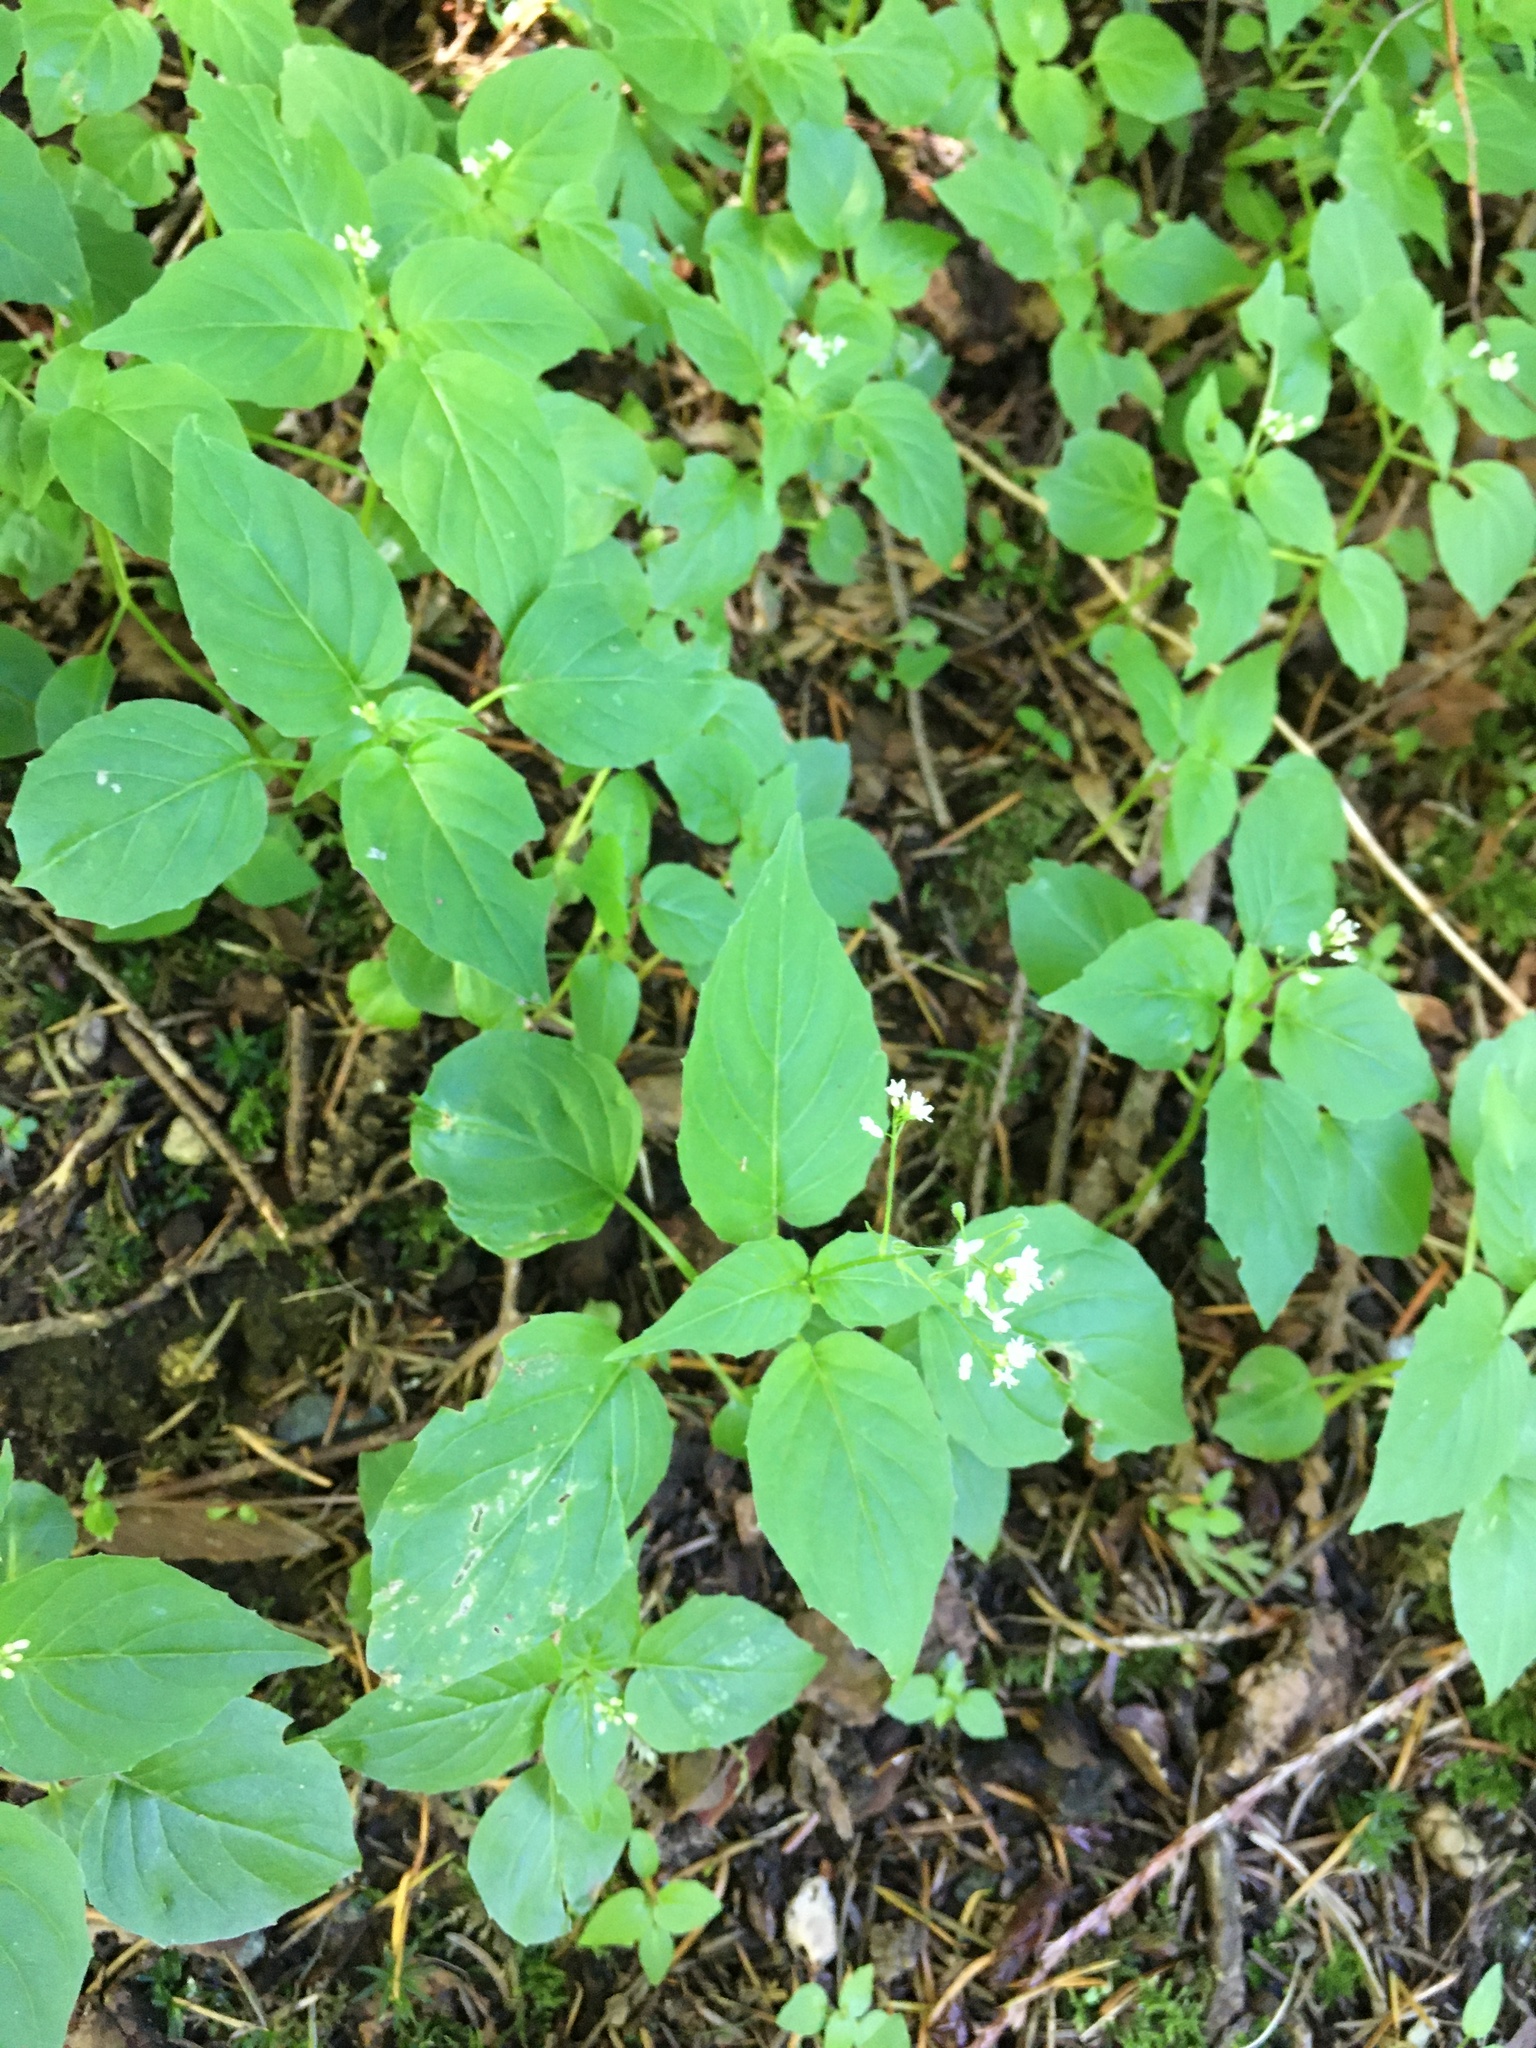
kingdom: Plantae
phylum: Tracheophyta
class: Magnoliopsida
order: Myrtales
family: Onagraceae
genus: Circaea
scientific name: Circaea alpina
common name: Alpine enchanter's-nightshade
